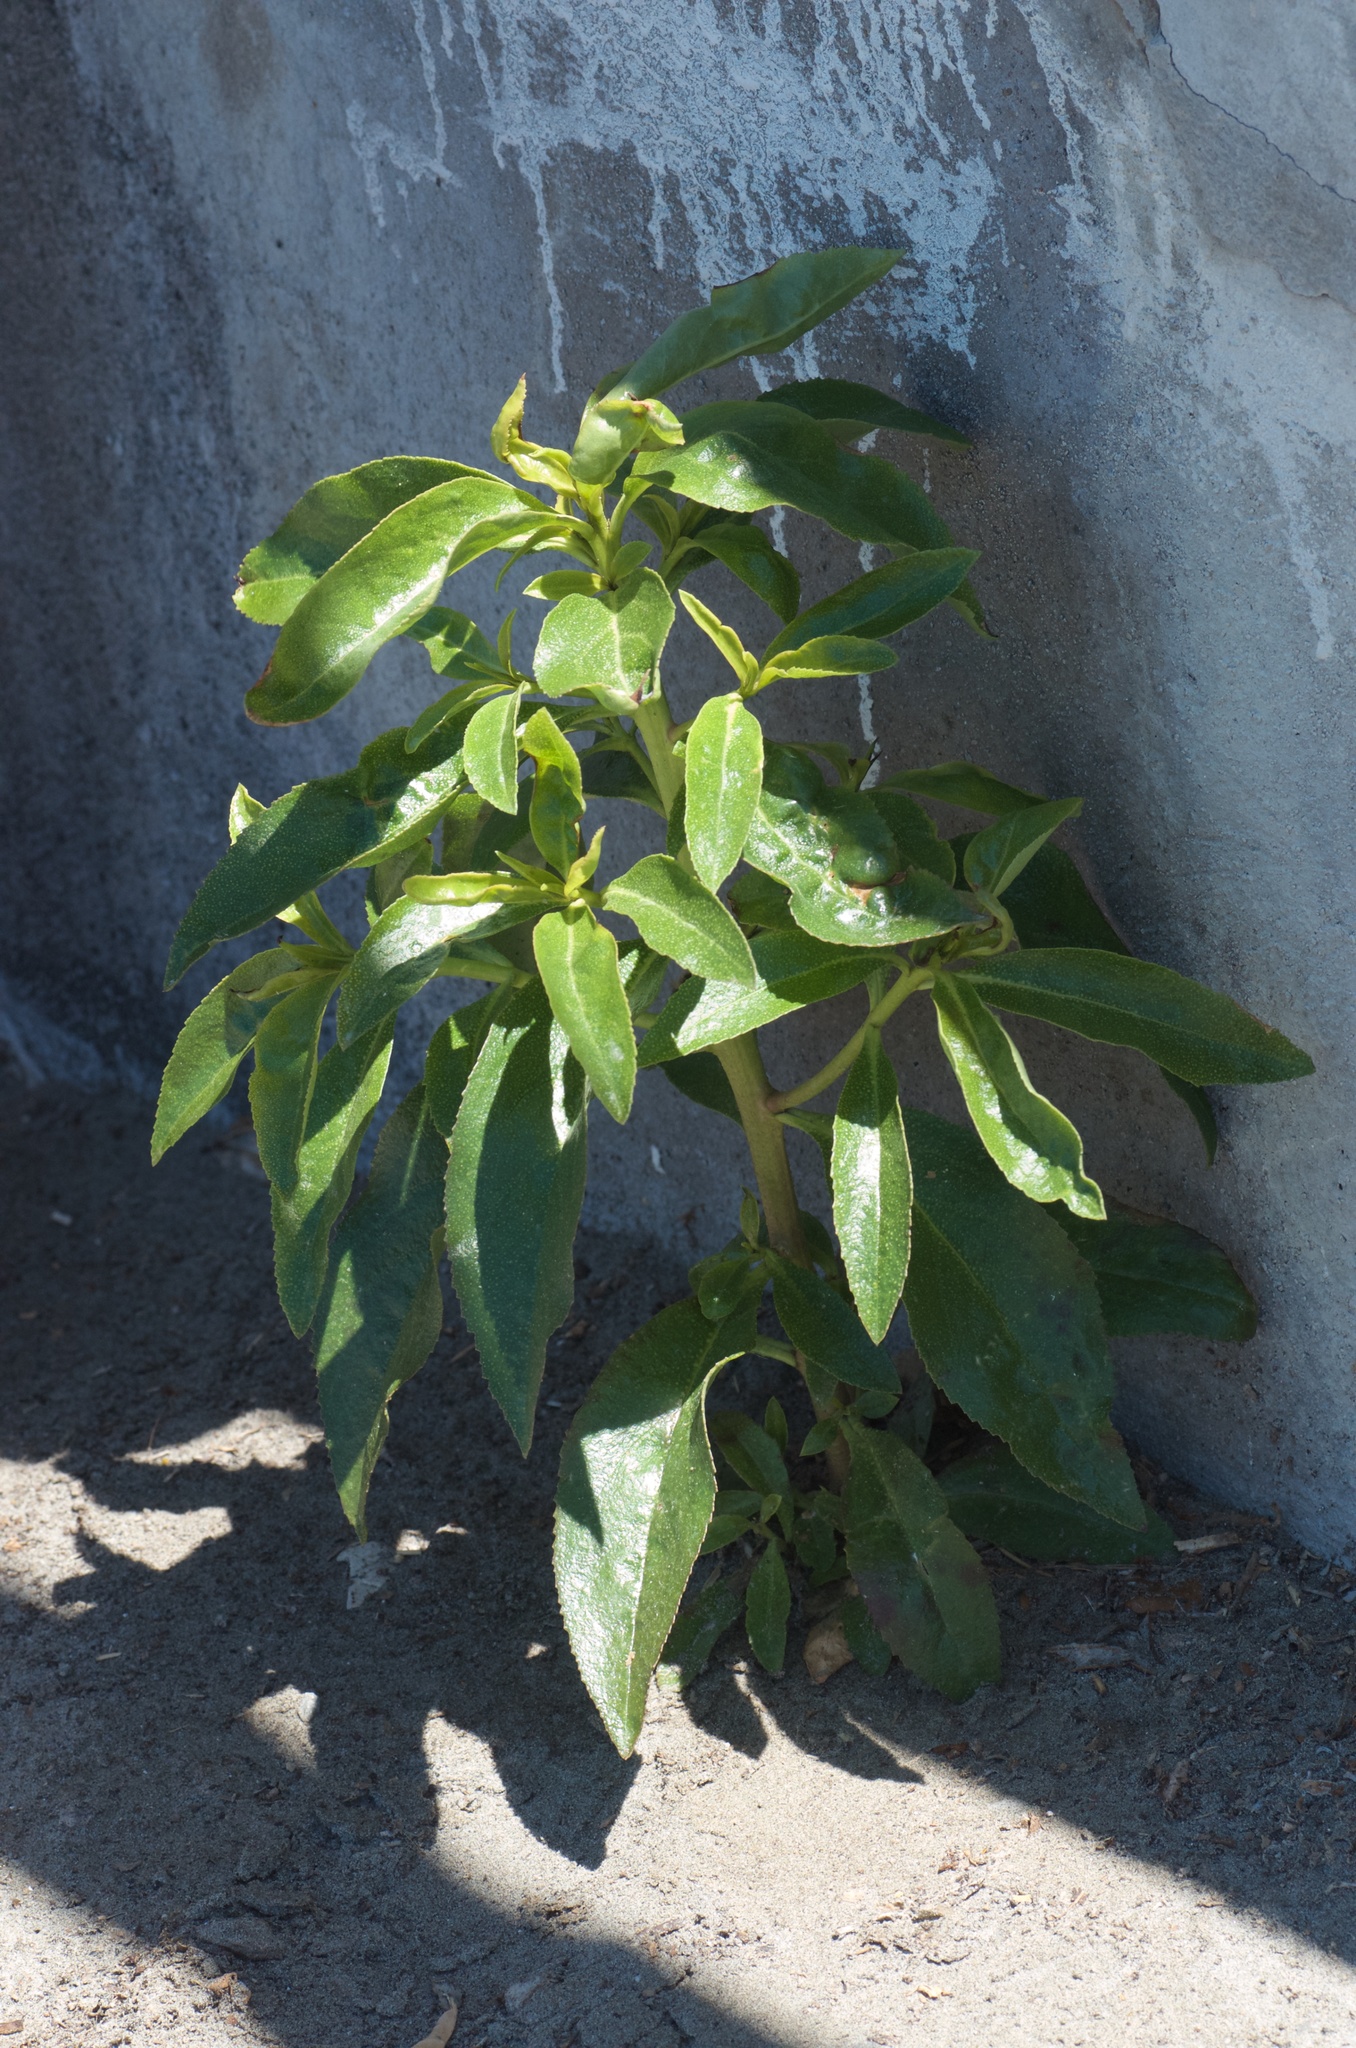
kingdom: Plantae
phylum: Tracheophyta
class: Magnoliopsida
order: Lamiales
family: Scrophulariaceae
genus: Myoporum
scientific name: Myoporum laetum
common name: Ngaio tree
